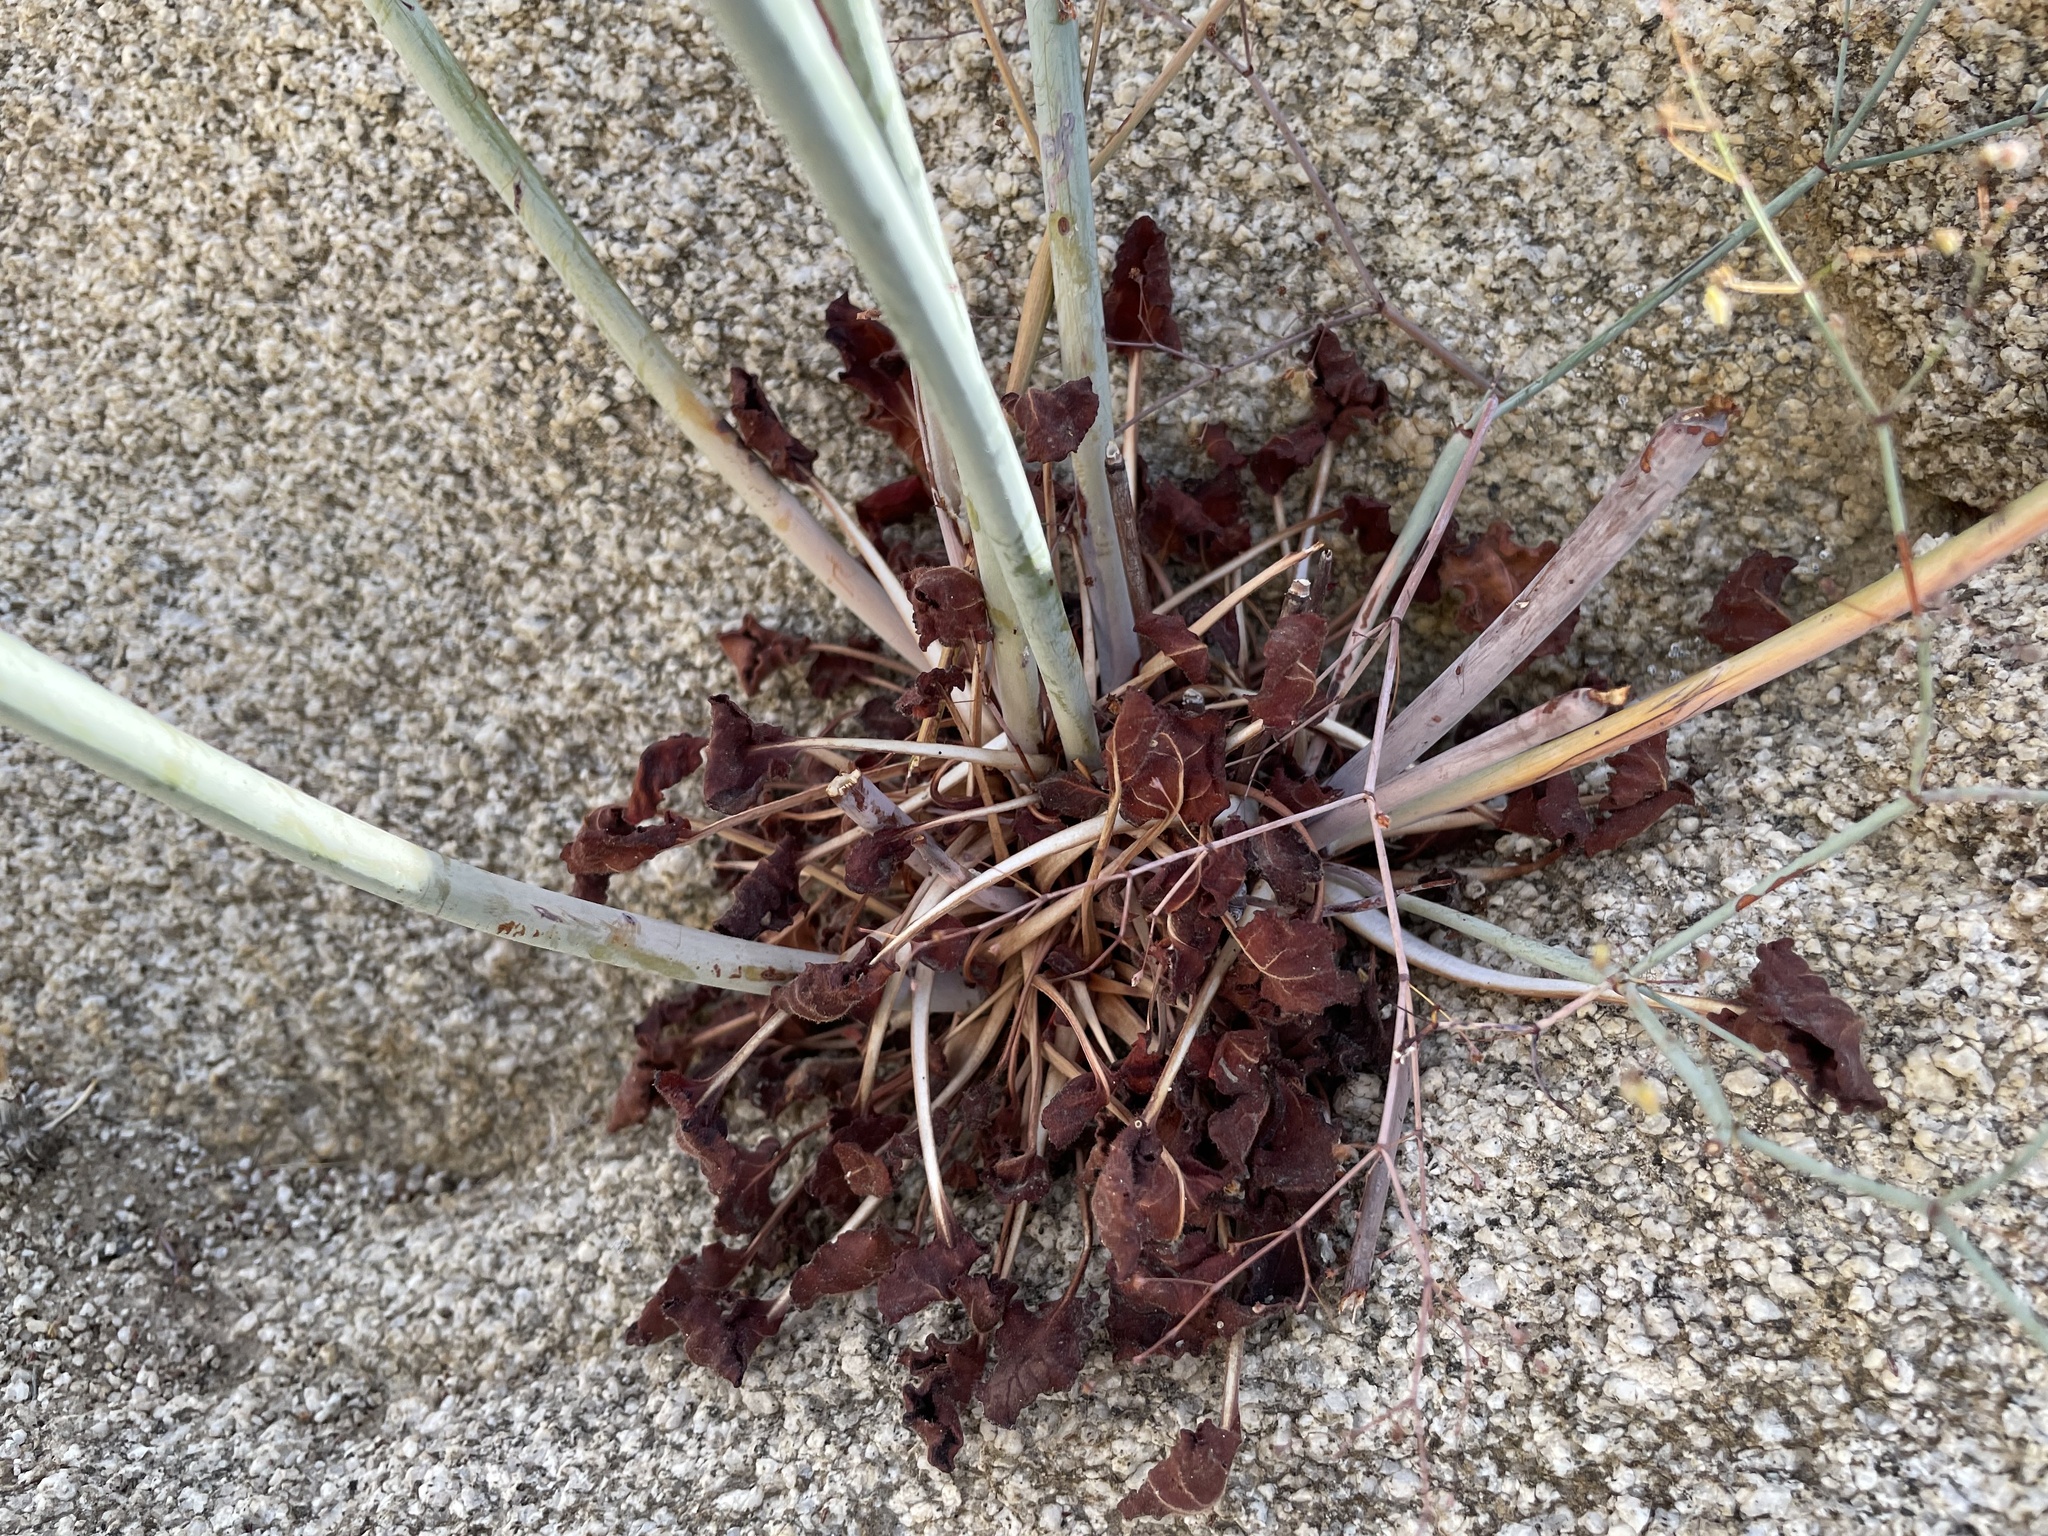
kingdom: Plantae
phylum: Tracheophyta
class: Magnoliopsida
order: Caryophyllales
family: Polygonaceae
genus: Eriogonum
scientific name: Eriogonum inflatum
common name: Desert trumpet
